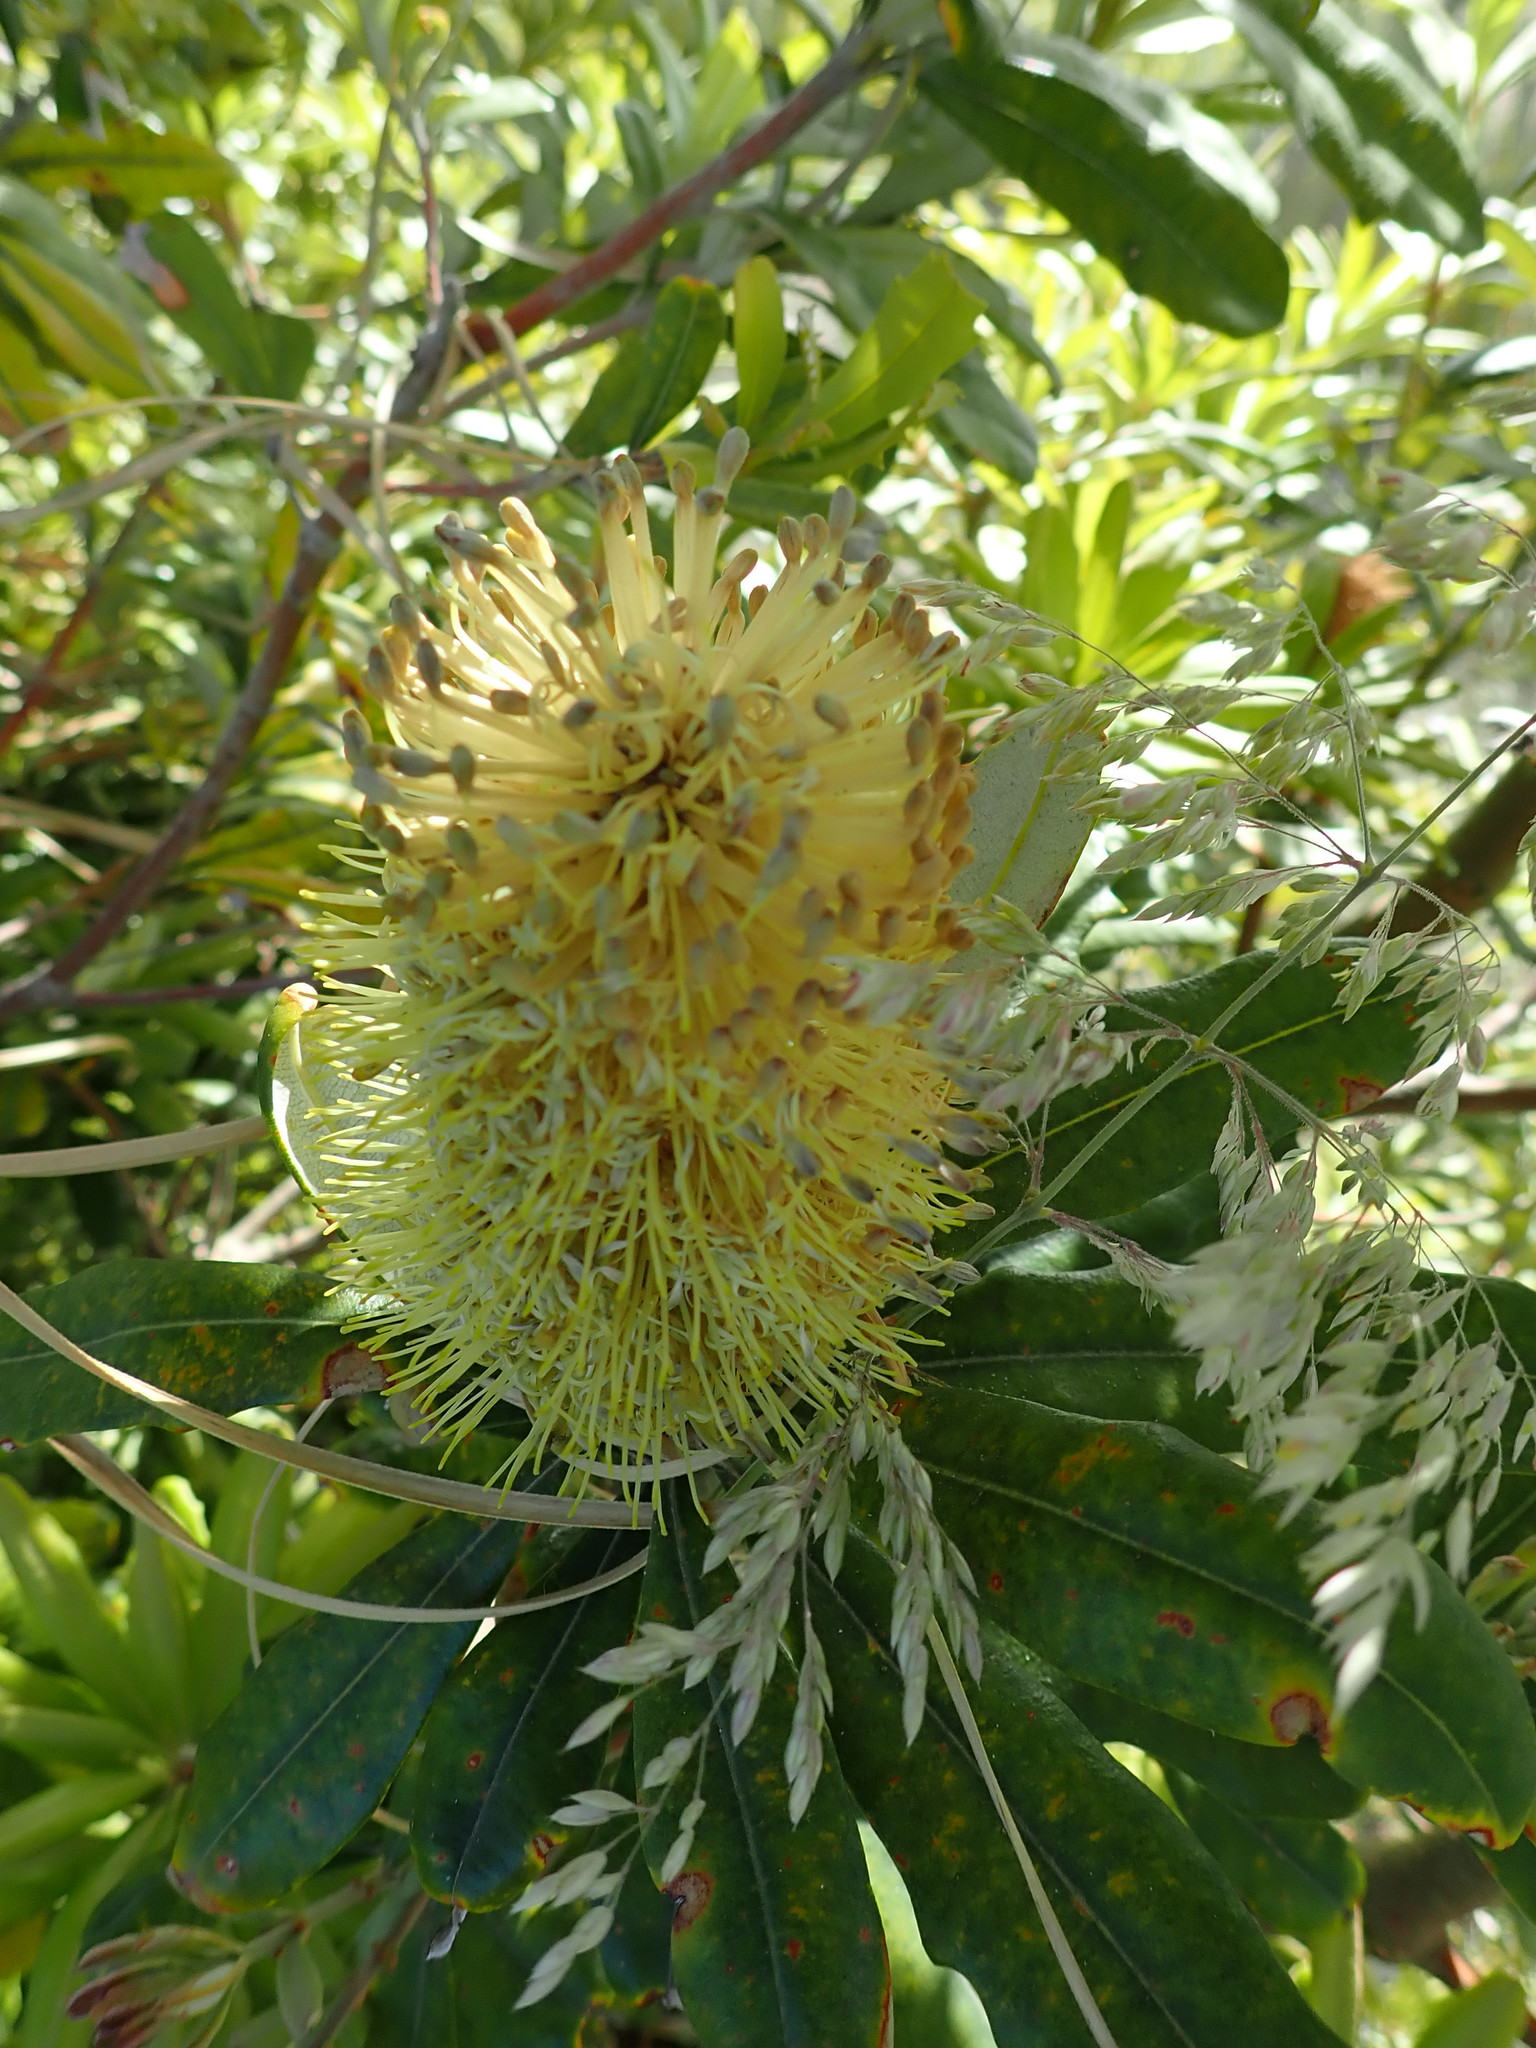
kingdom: Plantae
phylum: Tracheophyta
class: Magnoliopsida
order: Proteales
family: Proteaceae
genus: Banksia
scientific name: Banksia integrifolia
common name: White-honeysuckle
